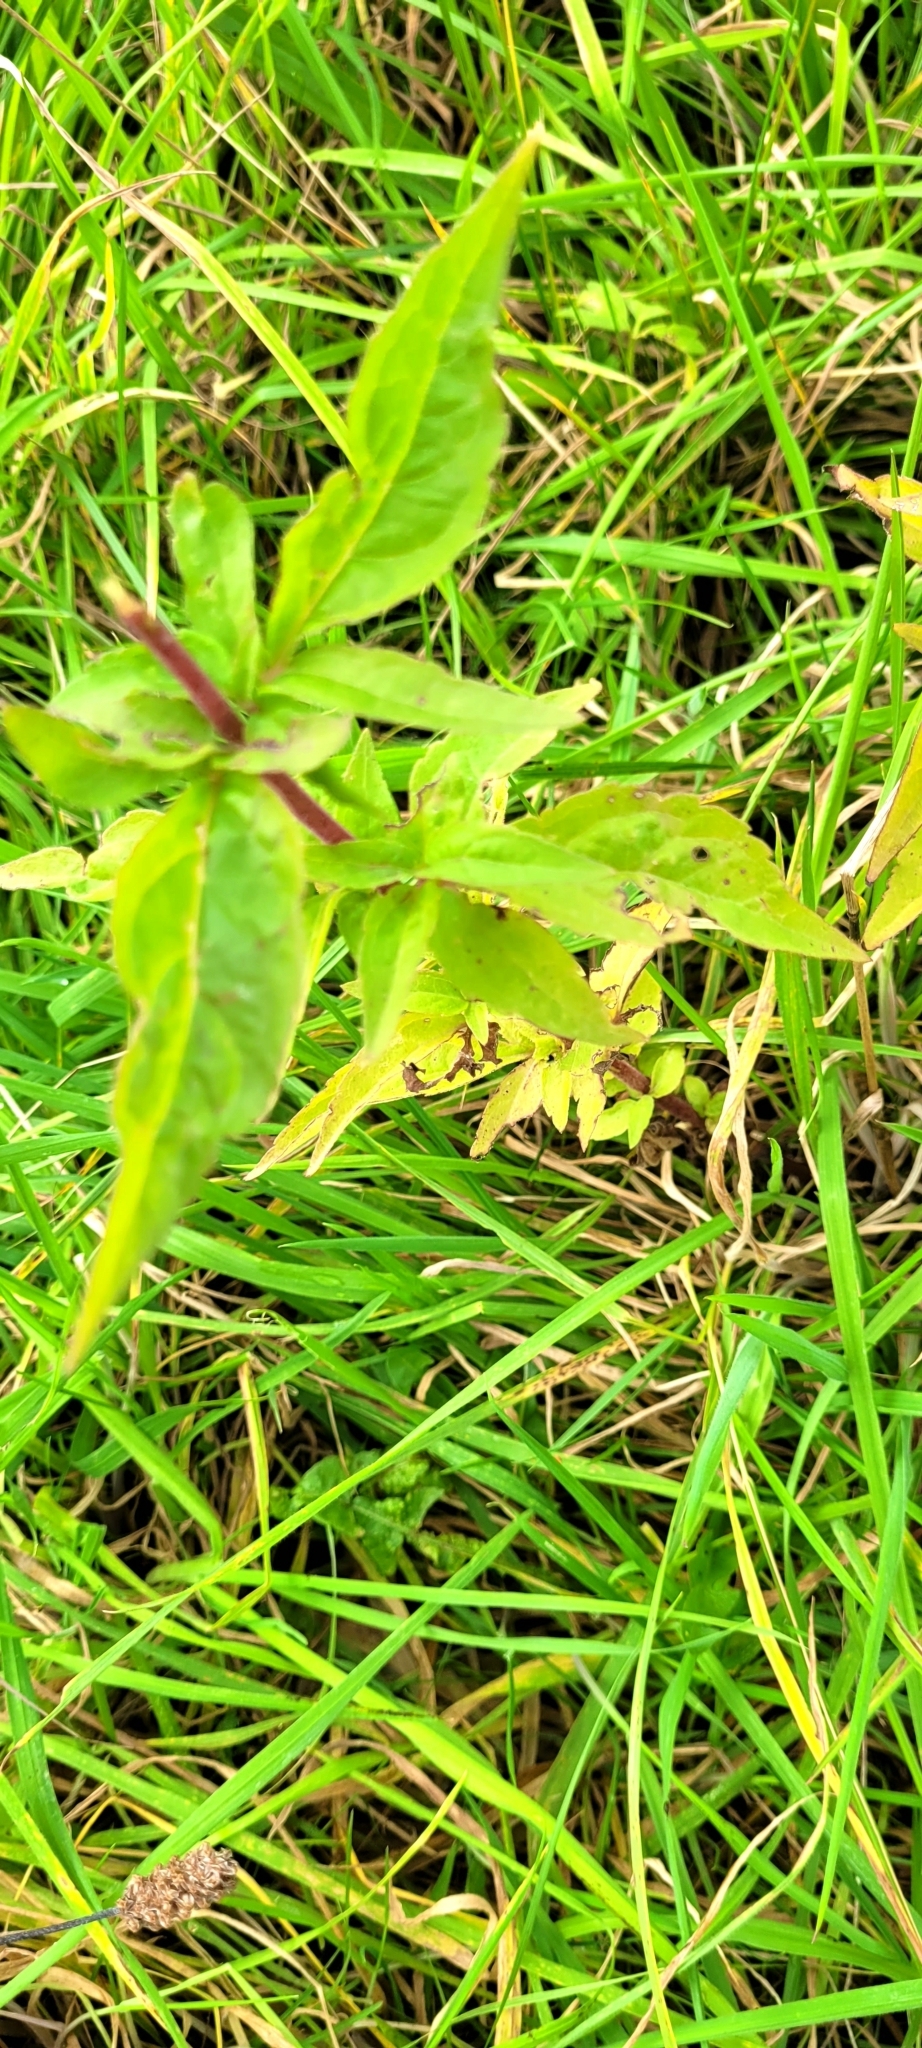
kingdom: Plantae
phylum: Tracheophyta
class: Magnoliopsida
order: Asterales
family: Asteraceae
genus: Eupatorium
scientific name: Eupatorium cannabinum
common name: Hemp-agrimony
